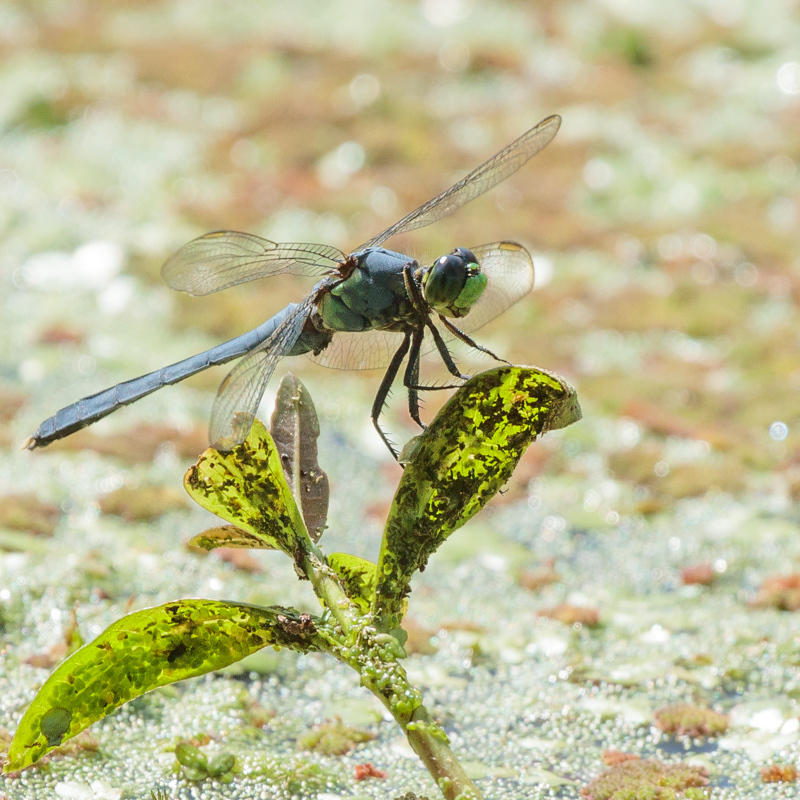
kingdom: Animalia
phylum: Arthropoda
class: Insecta
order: Odonata
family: Libellulidae
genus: Erythemis
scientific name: Erythemis simplicicollis
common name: Eastern pondhawk
